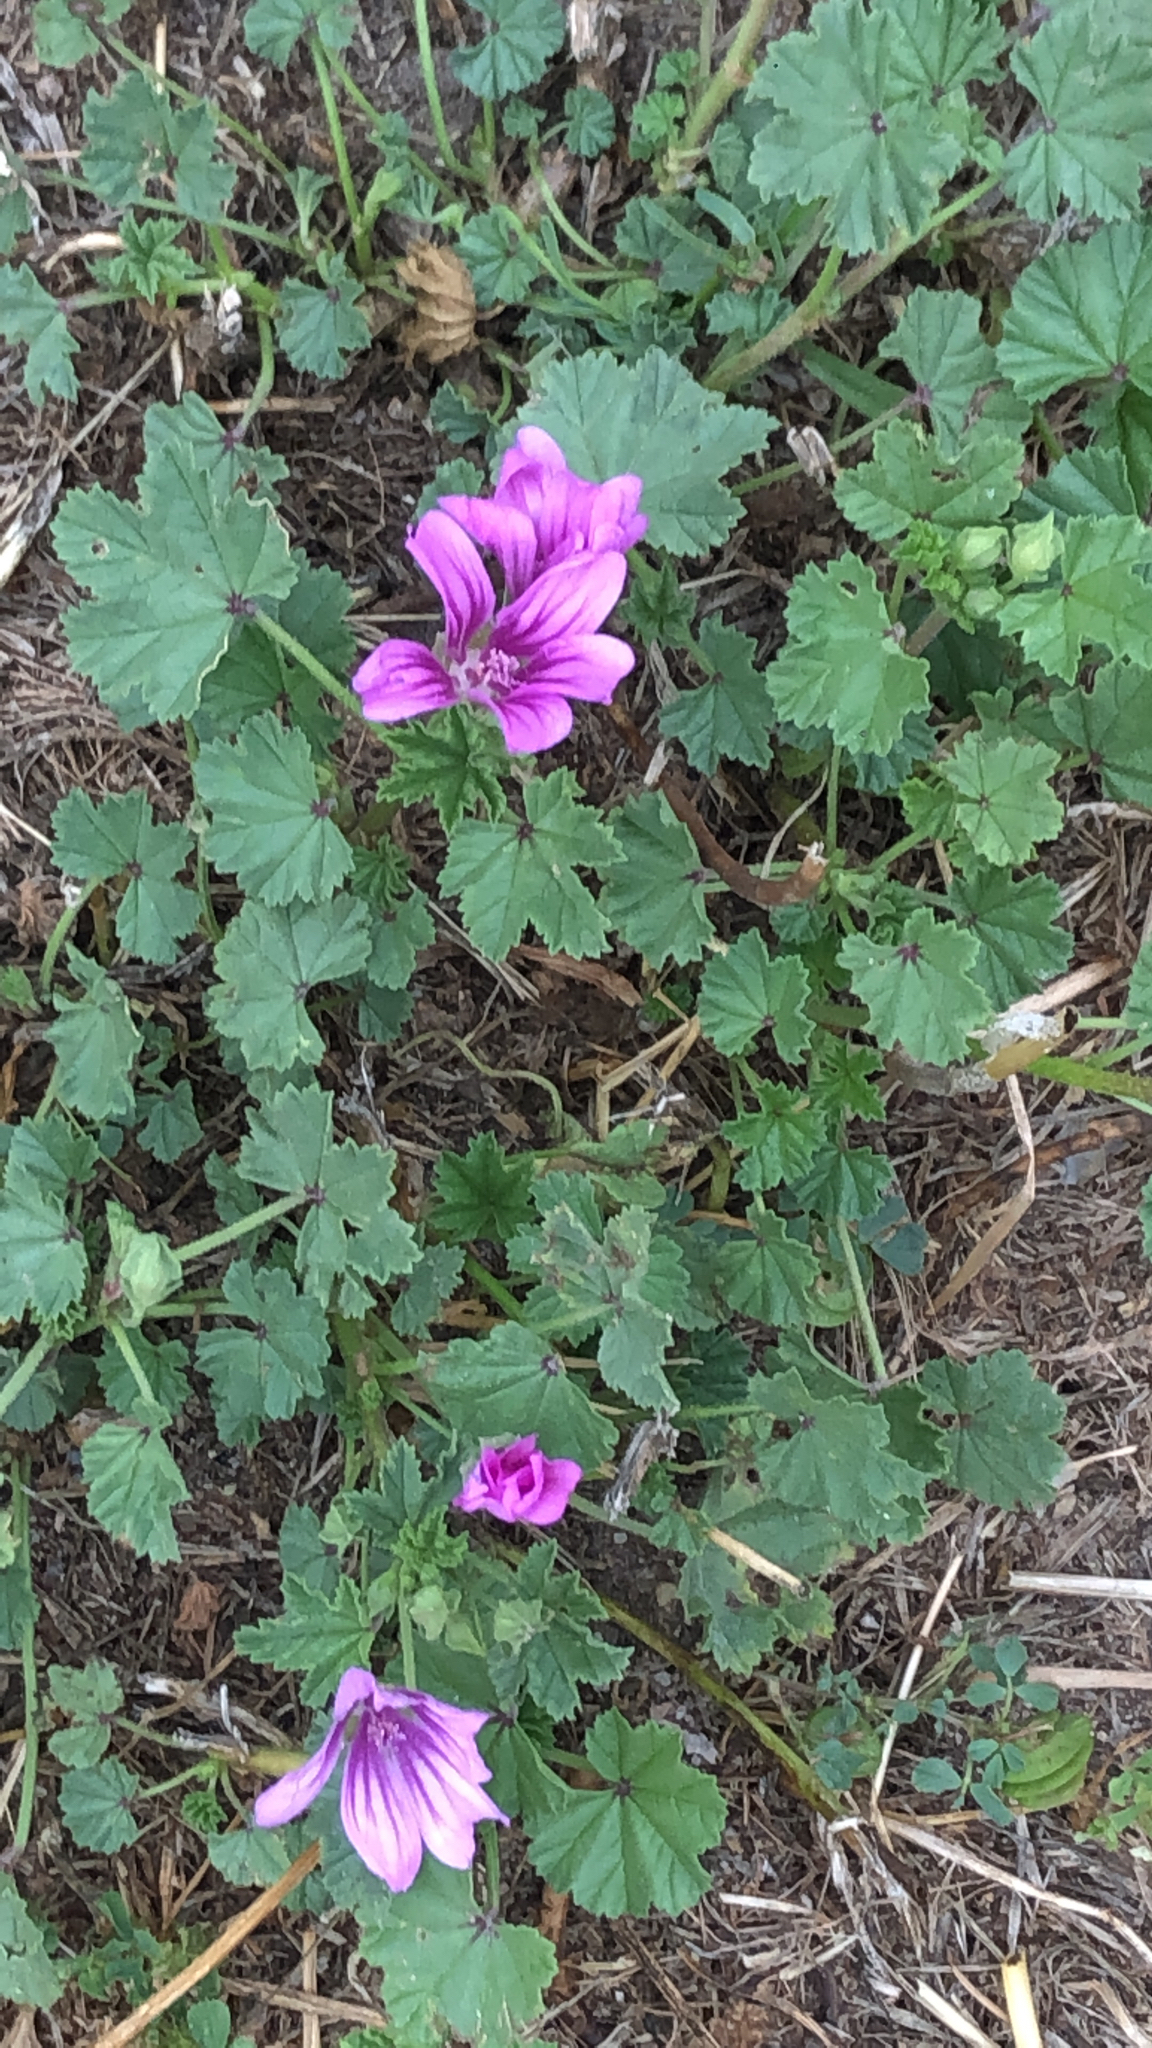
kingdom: Plantae
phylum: Tracheophyta
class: Magnoliopsida
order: Malvales
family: Malvaceae
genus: Malva
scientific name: Malva sylvestris
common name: Common mallow
